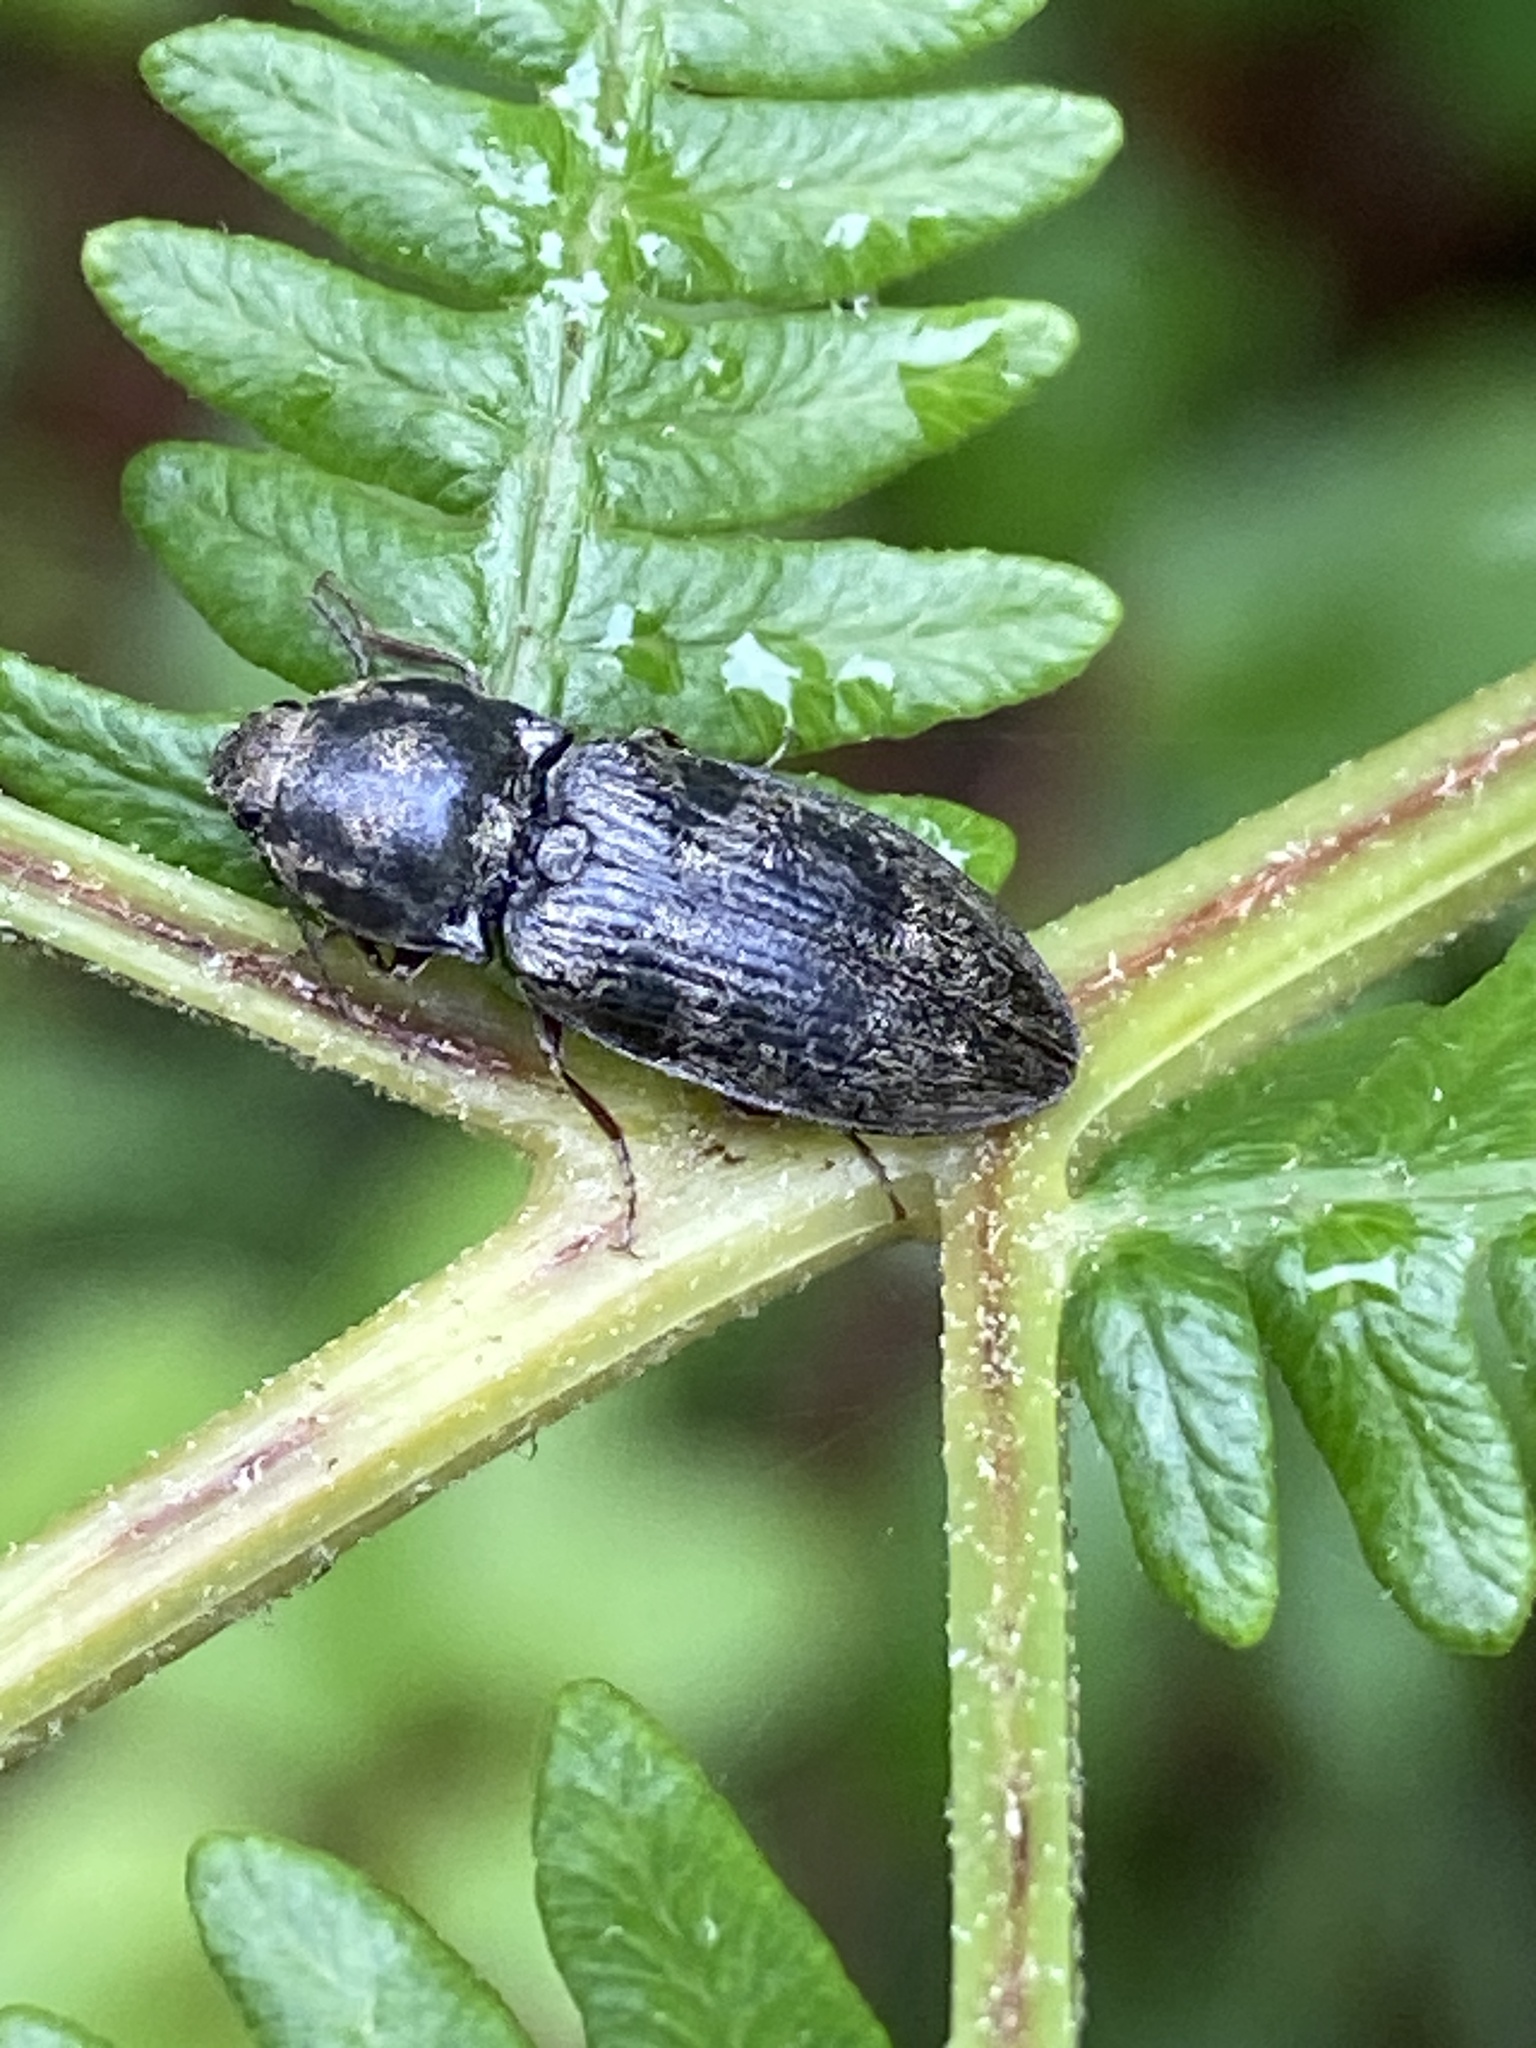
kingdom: Animalia
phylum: Arthropoda
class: Insecta
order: Coleoptera
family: Elateridae
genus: Prosternon
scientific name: Prosternon tessellatum
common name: Chequered click beetle
